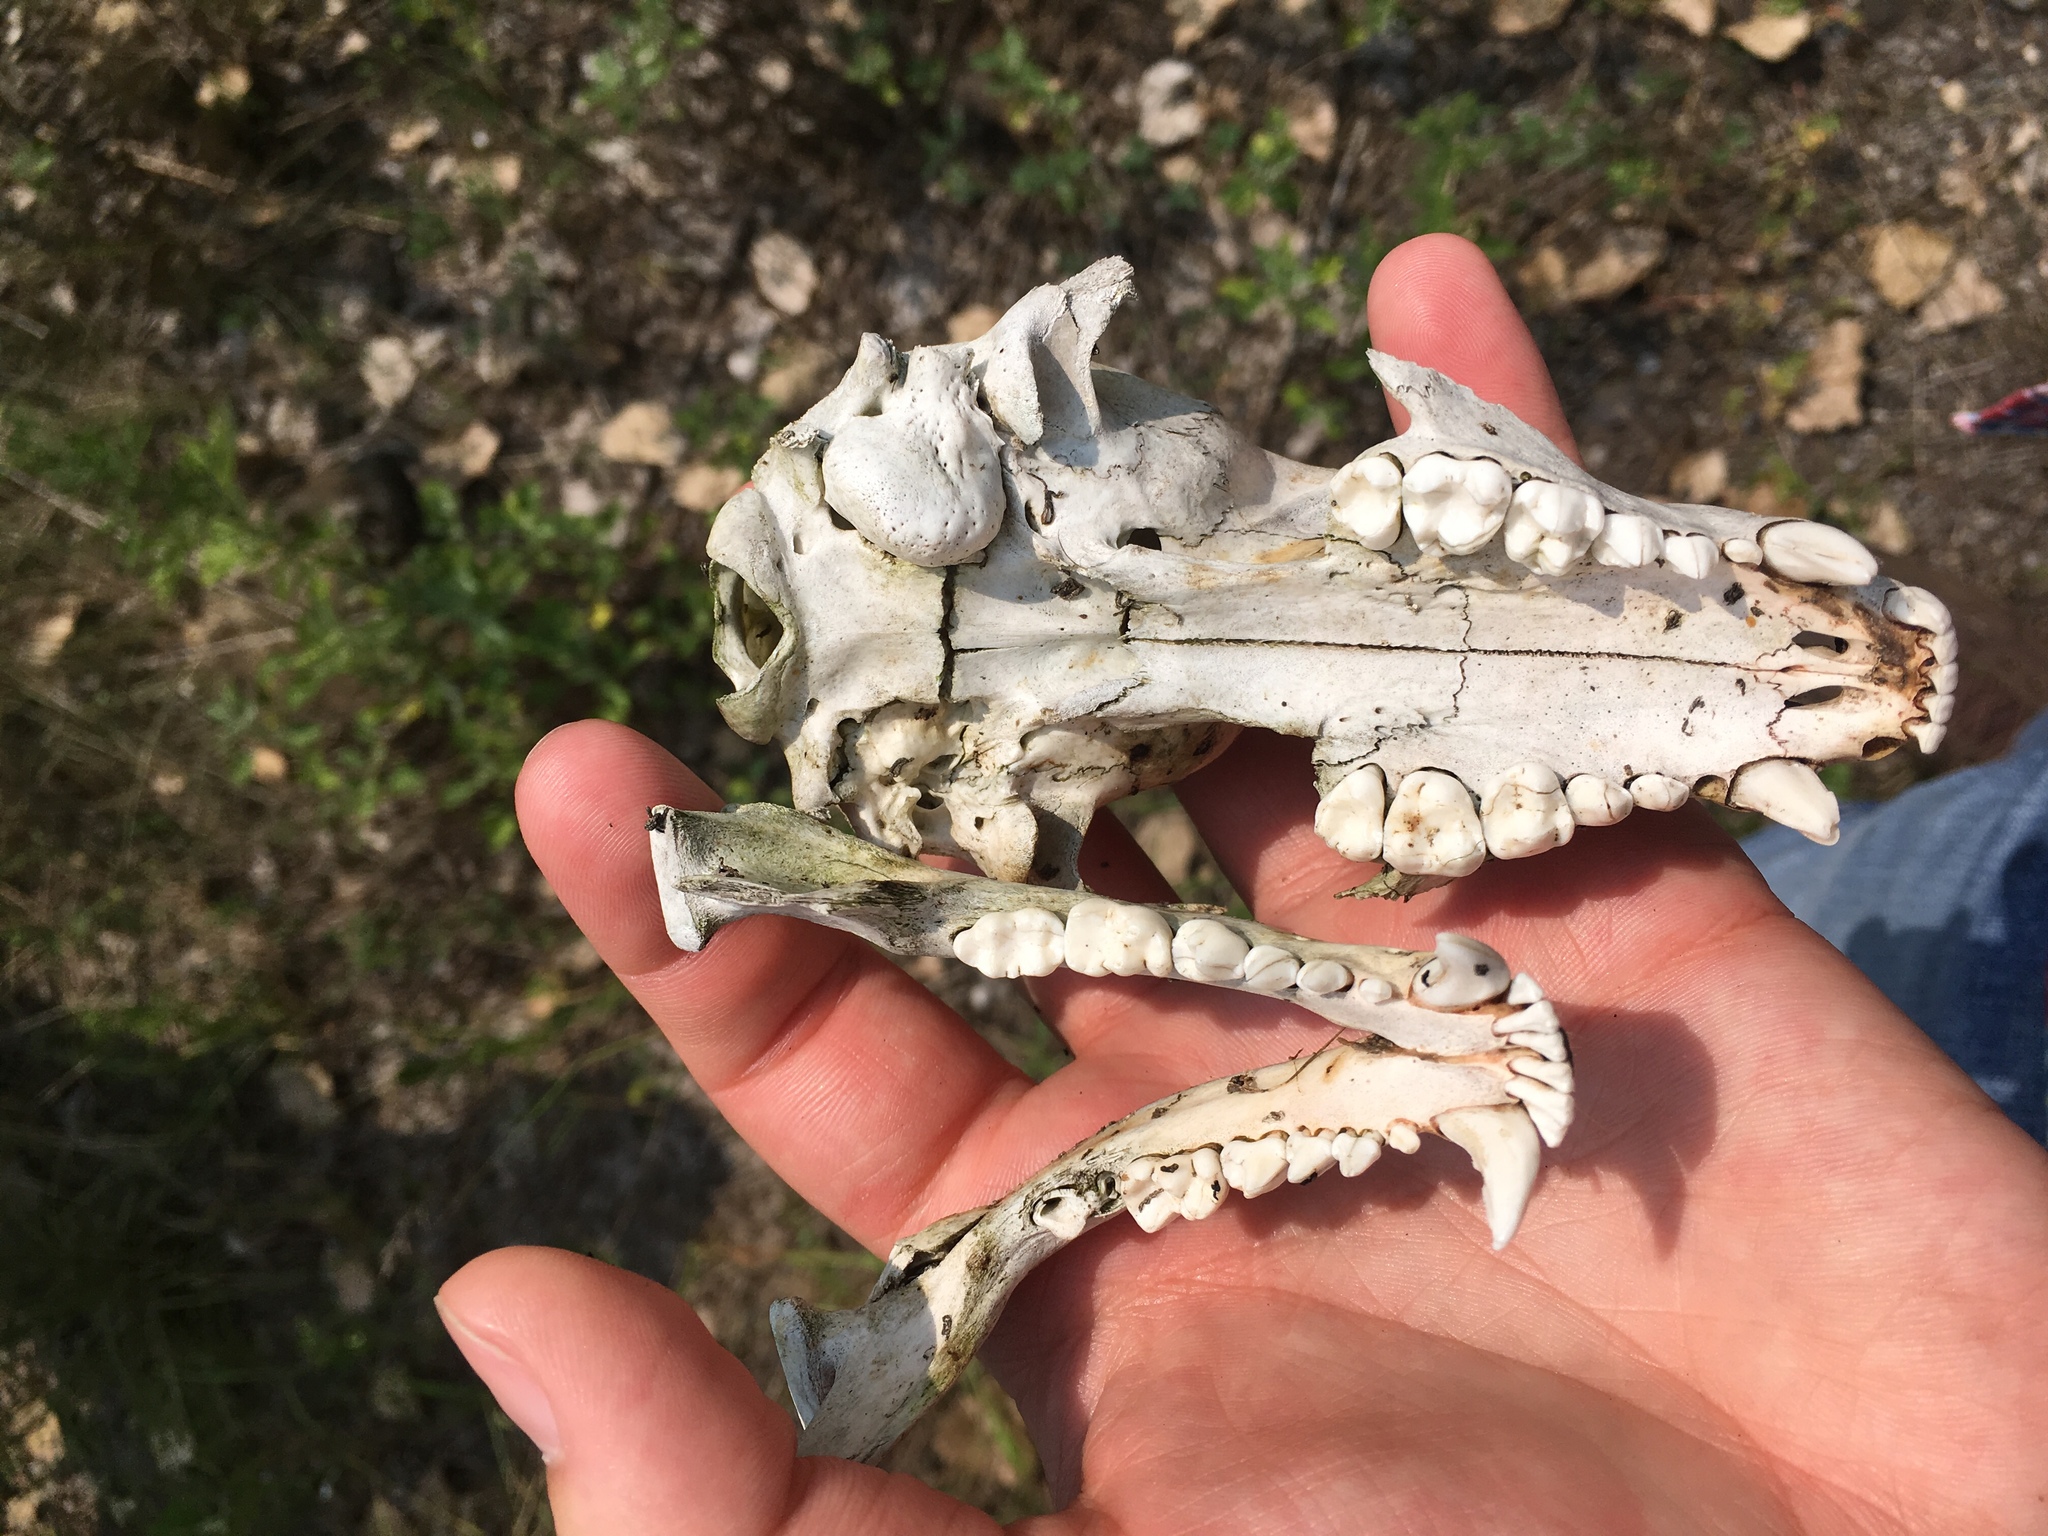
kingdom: Animalia
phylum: Chordata
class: Mammalia
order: Carnivora
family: Procyonidae
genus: Procyon
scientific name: Procyon lotor
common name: Raccoon
